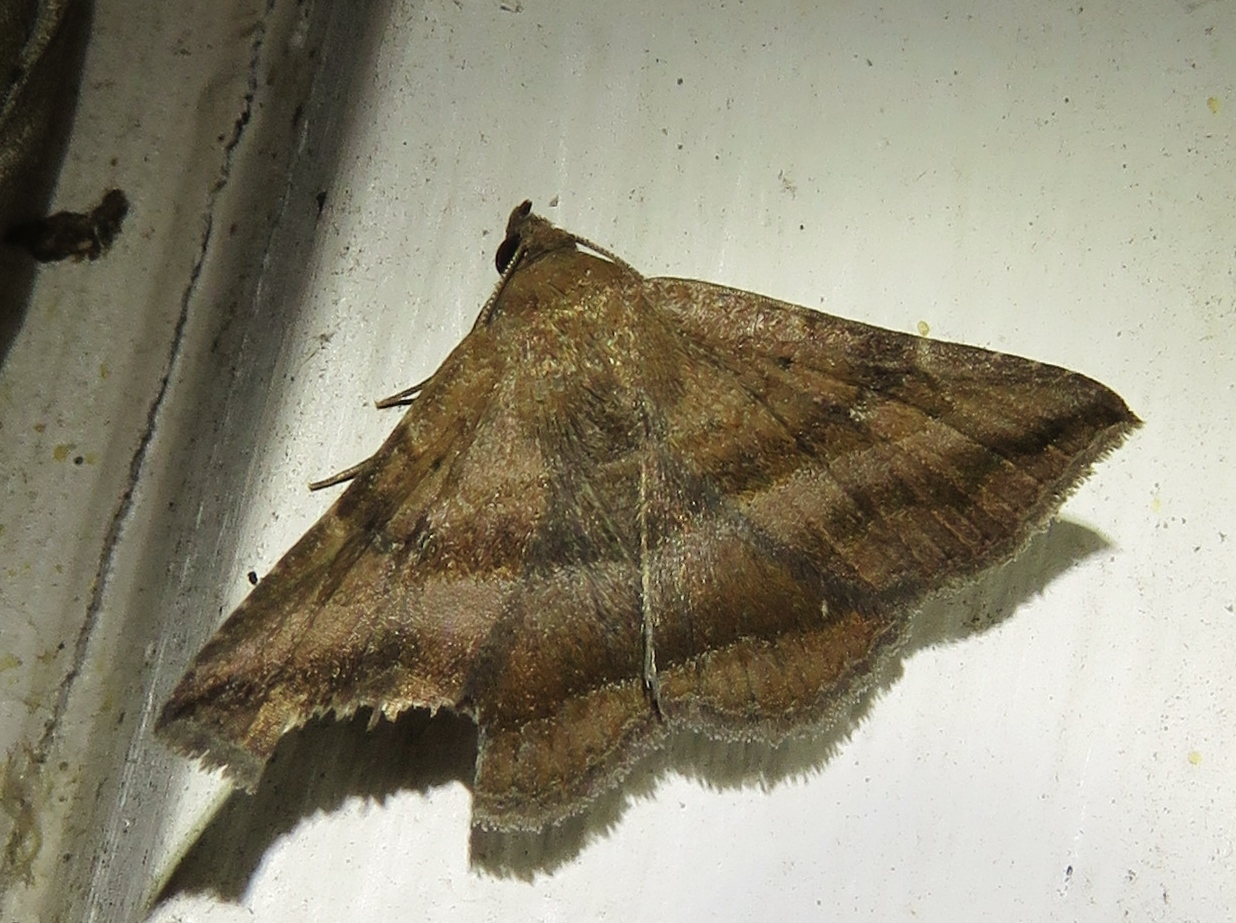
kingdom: Animalia
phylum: Arthropoda
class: Insecta
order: Lepidoptera
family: Erebidae
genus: Lesmone
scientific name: Lesmone detrahens
